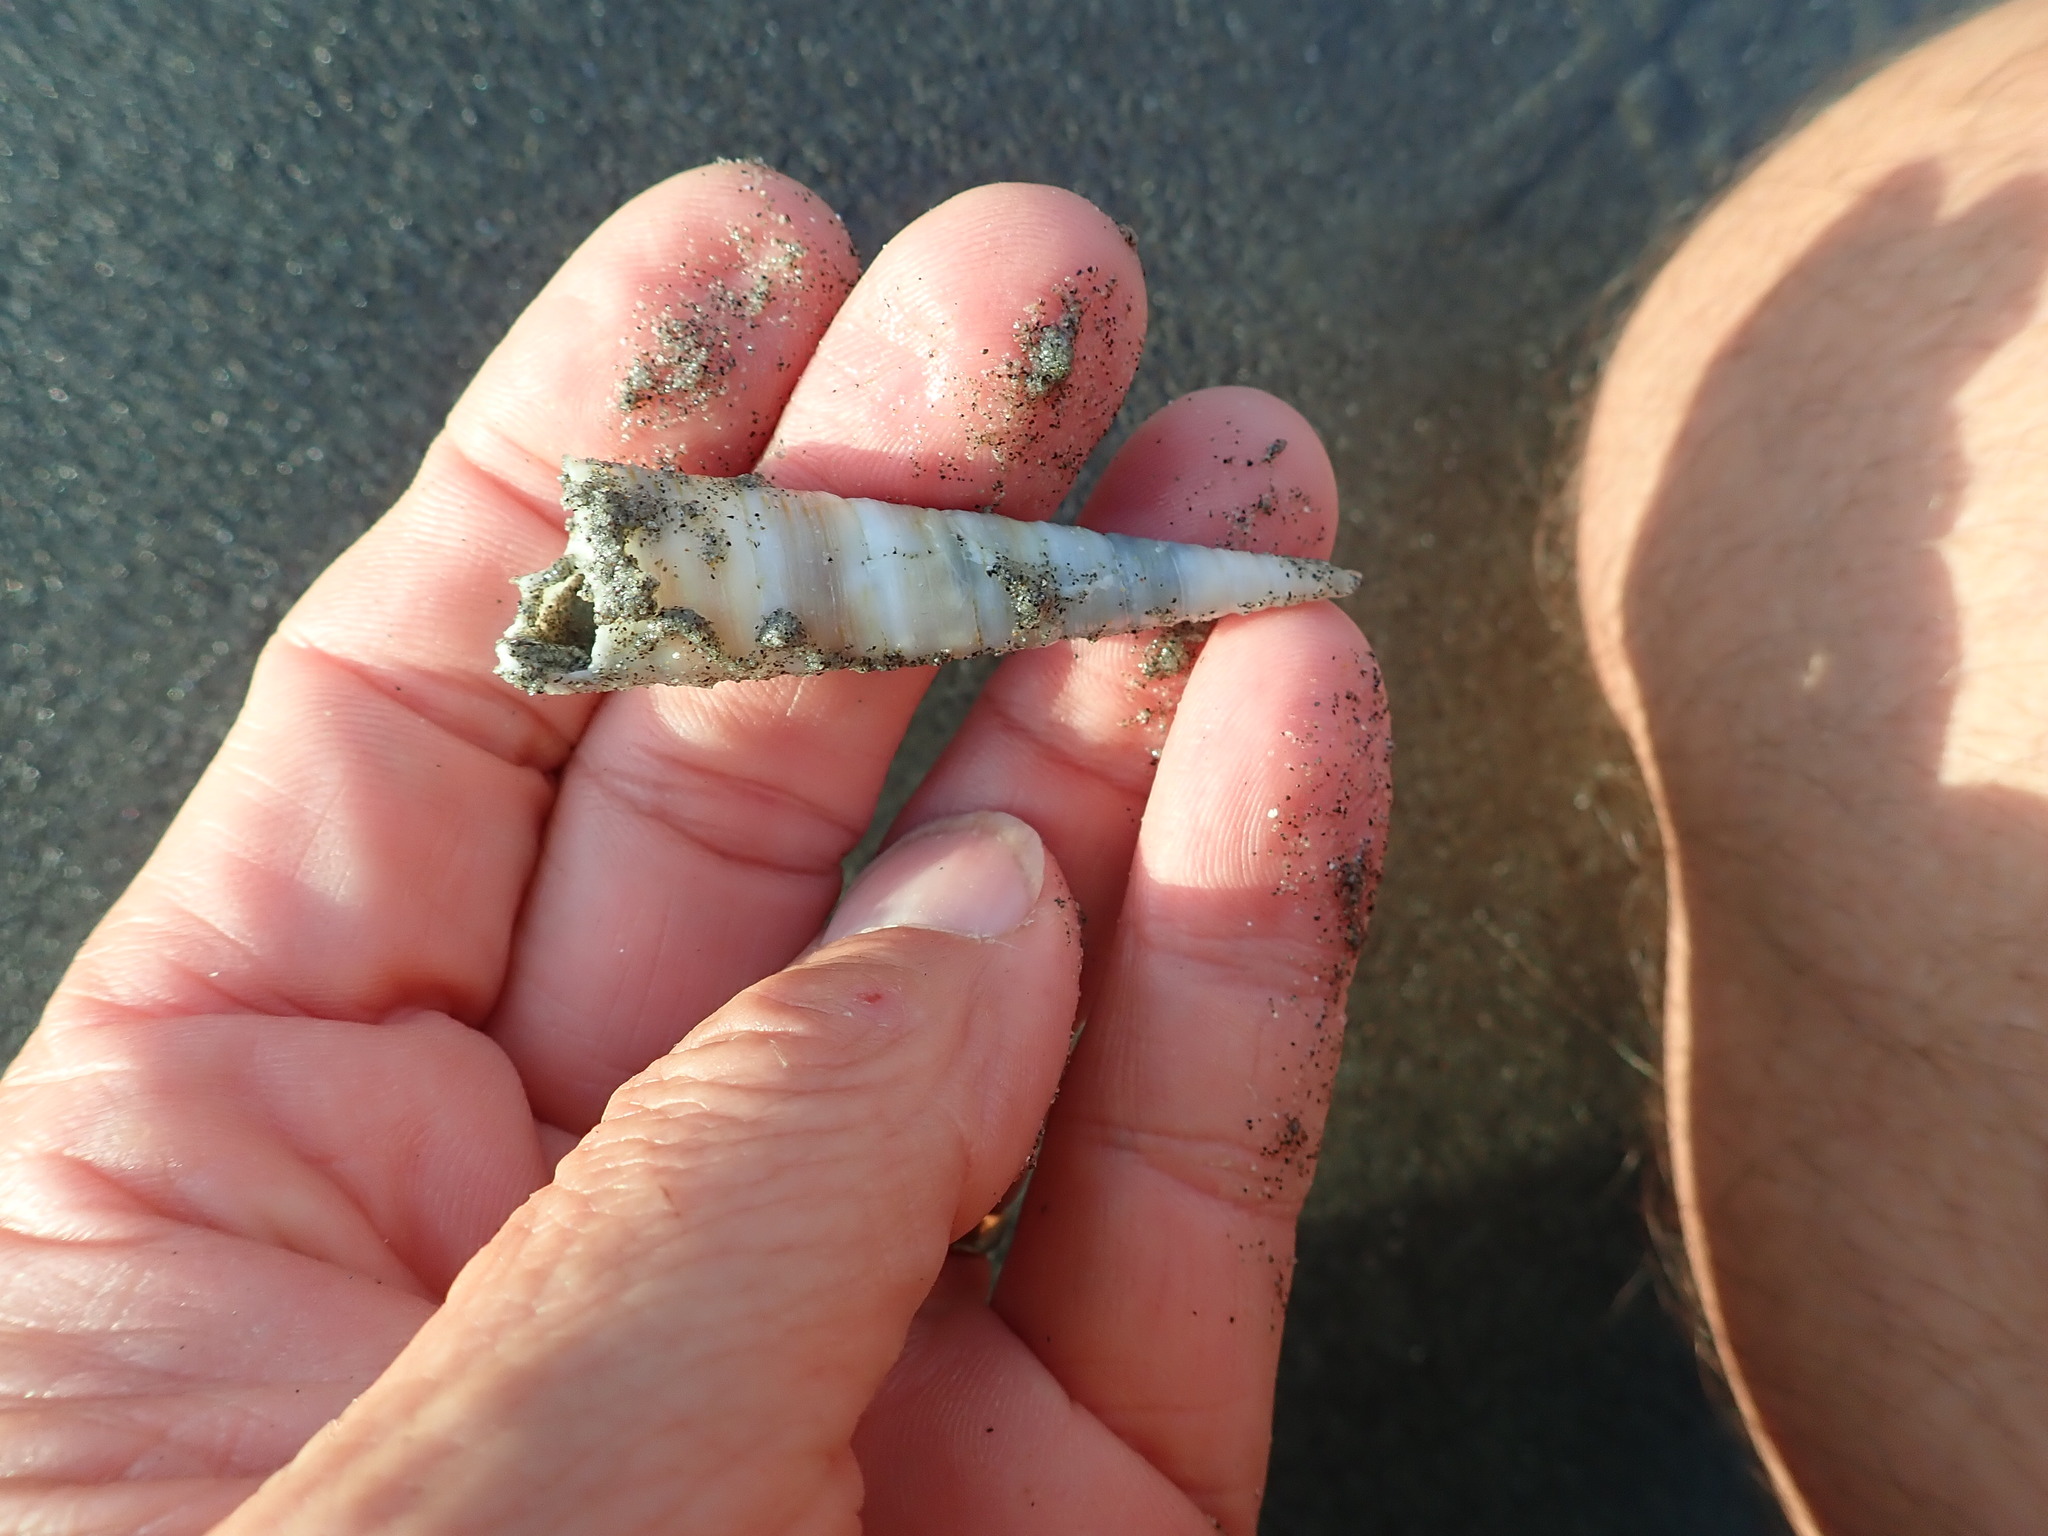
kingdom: Animalia
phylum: Mollusca
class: Gastropoda
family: Turritellidae
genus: Zeacolpus
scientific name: Zeacolpus vittatus
